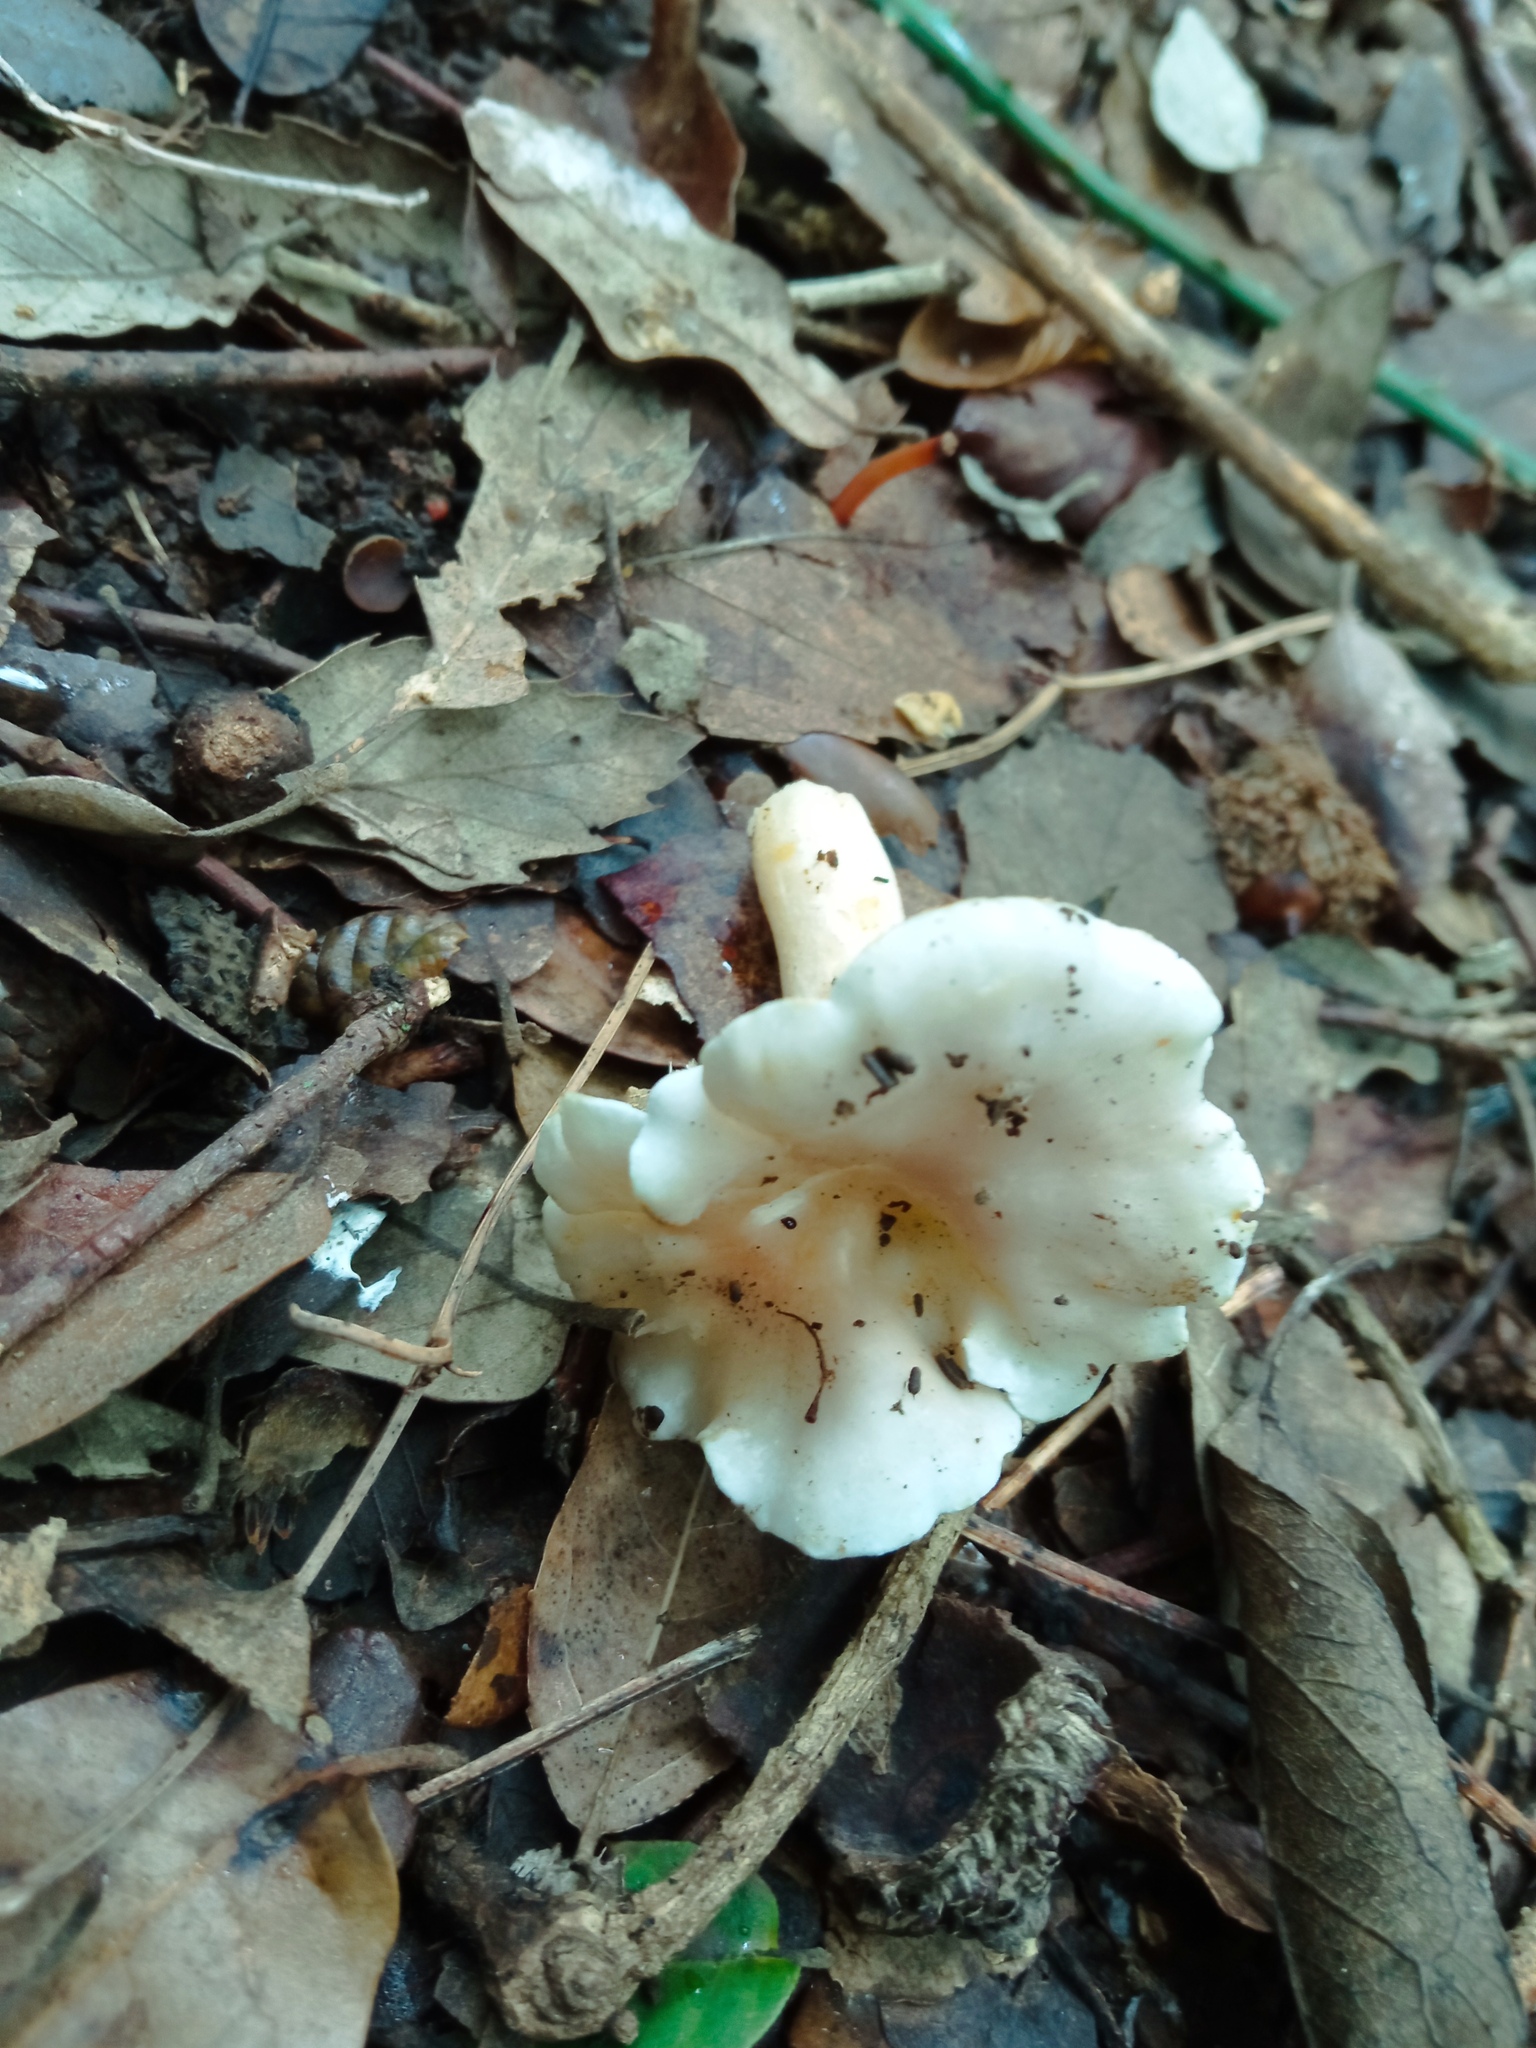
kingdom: Fungi
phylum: Basidiomycota
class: Agaricomycetes
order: Cantharellales
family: Hydnaceae
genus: Cantharellus
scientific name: Cantharellus pallens
